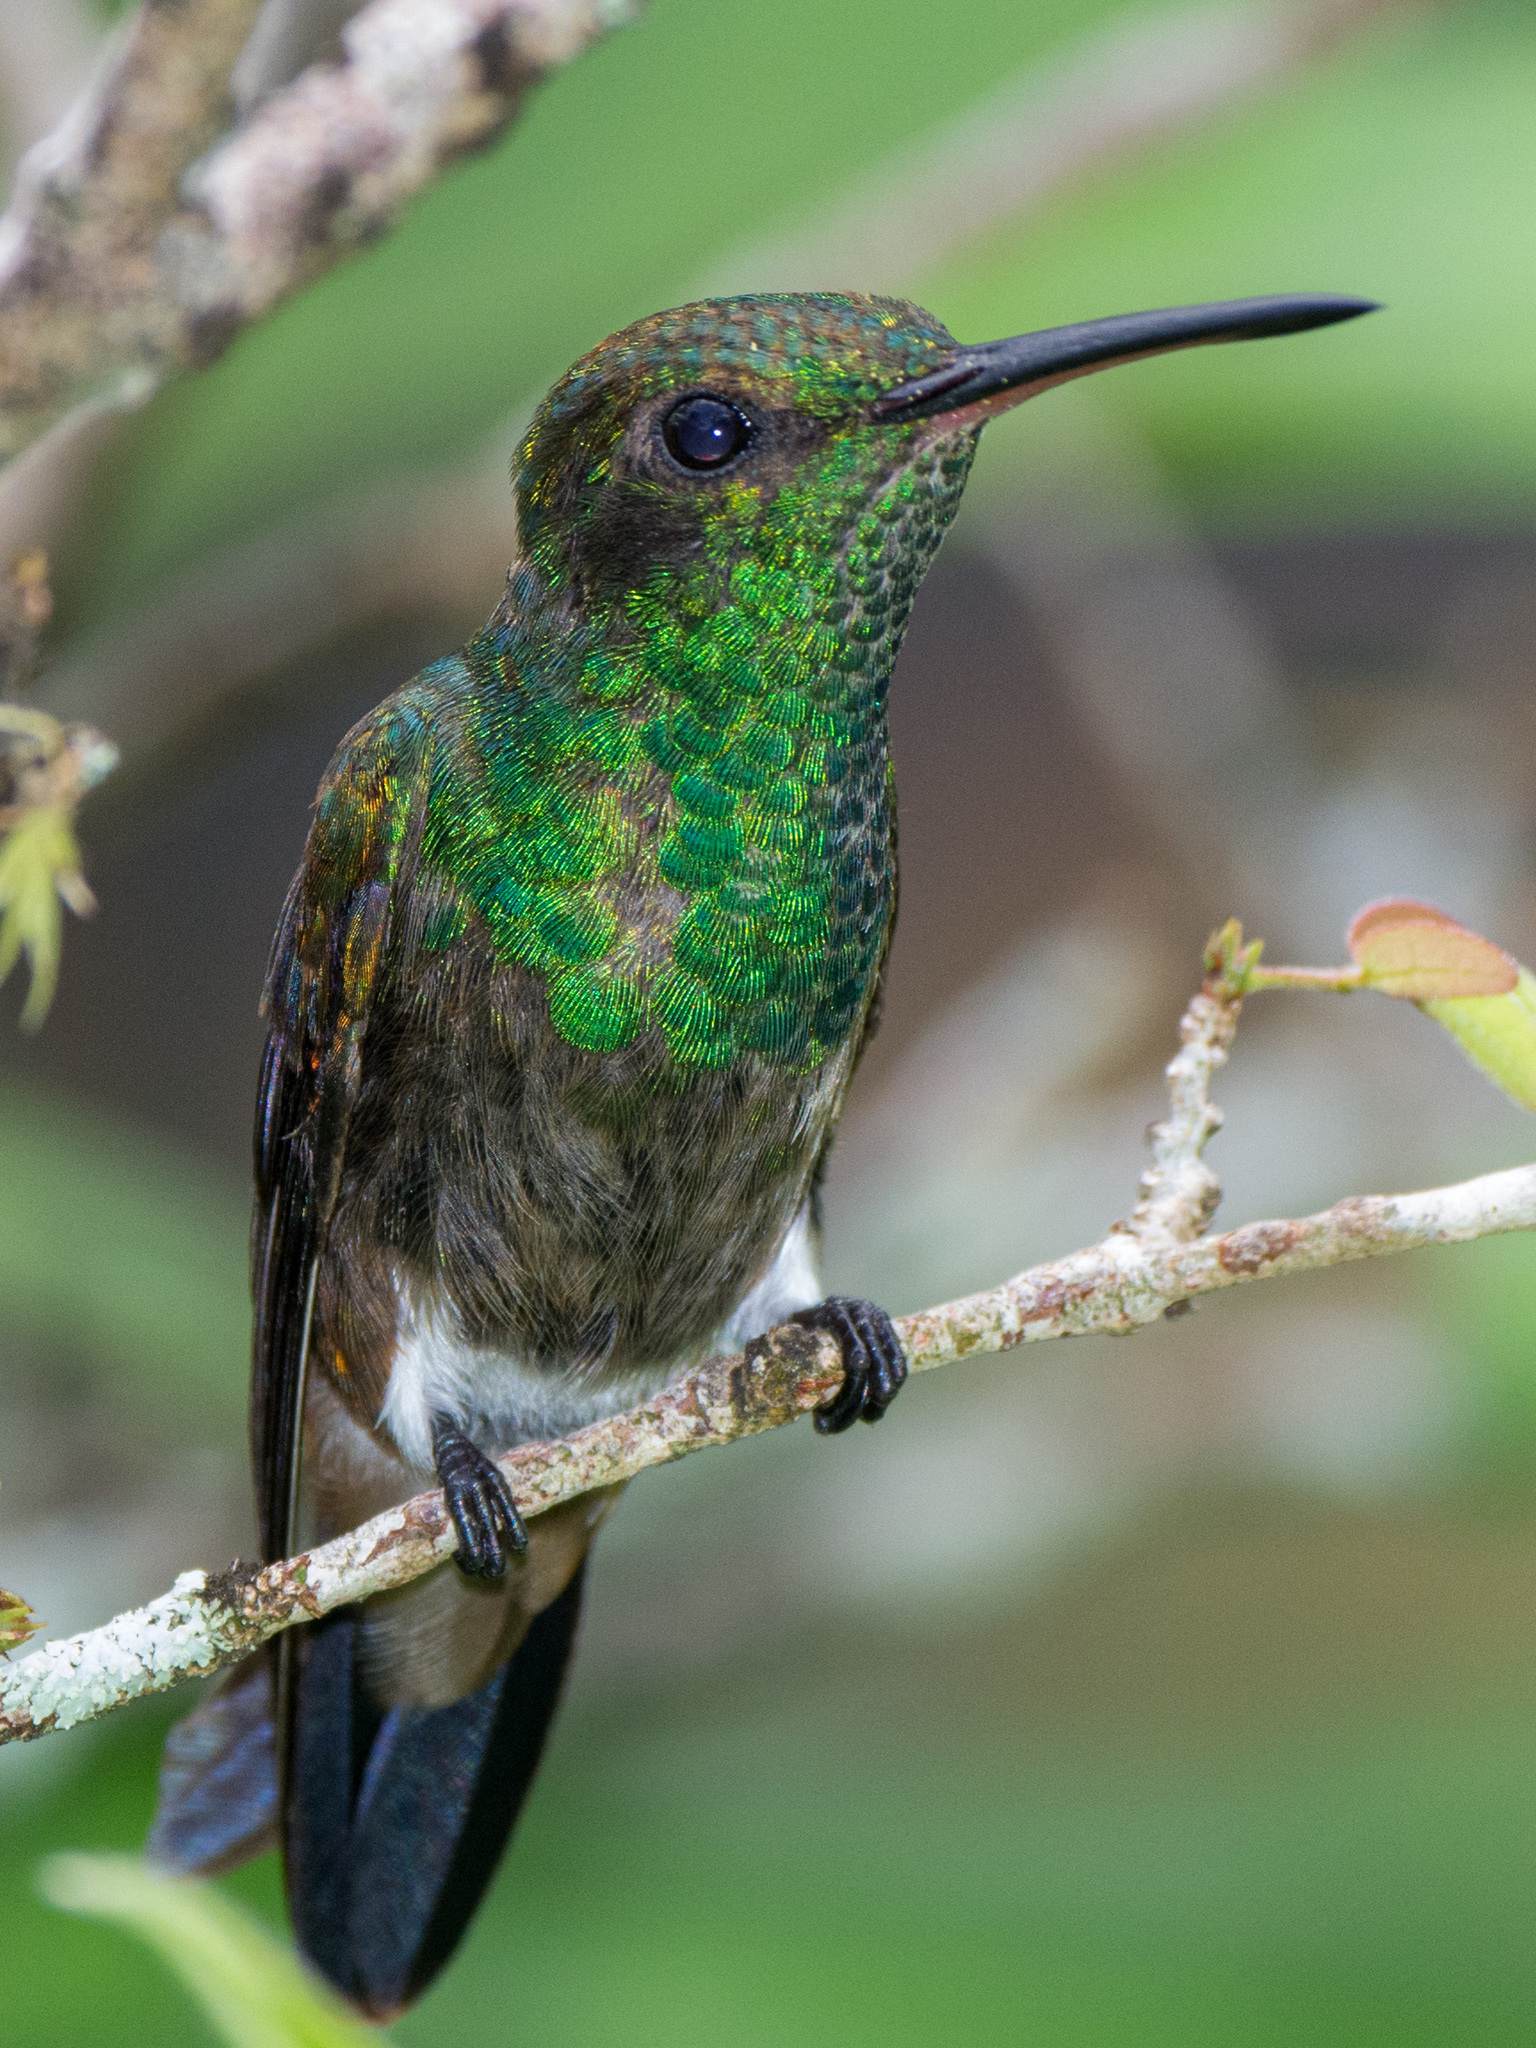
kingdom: Animalia
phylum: Chordata
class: Aves
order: Apodiformes
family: Trochilidae
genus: Saucerottia
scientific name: Saucerottia tobaci
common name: Copper-rumped hummingbird
